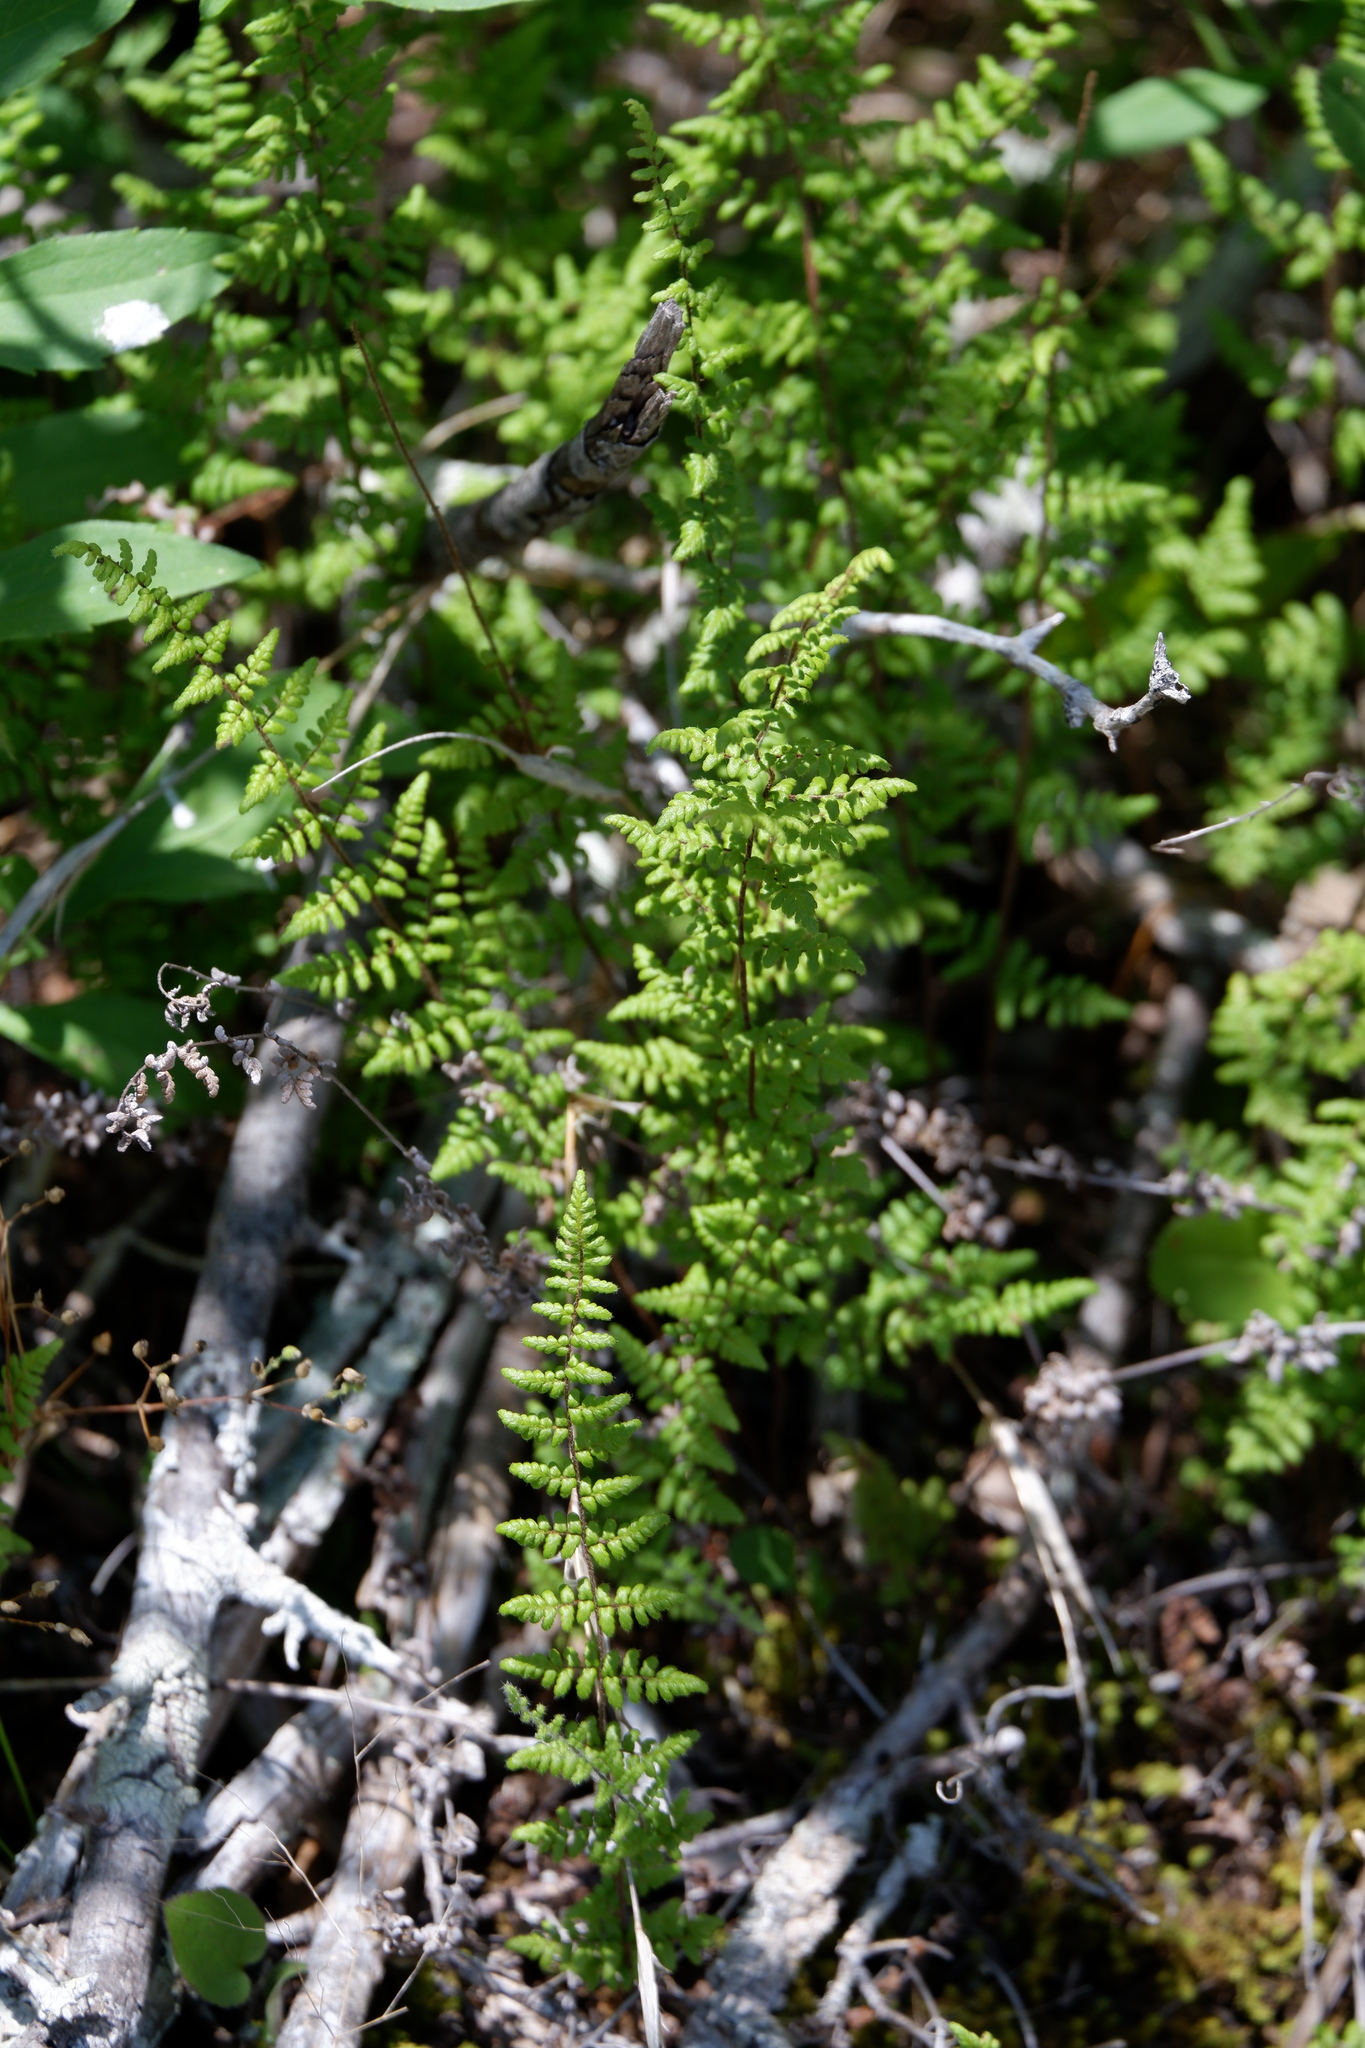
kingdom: Plantae
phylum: Tracheophyta
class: Polypodiopsida
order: Polypodiales
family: Pteridaceae
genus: Myriopteris
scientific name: Myriopteris lanosa
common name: Hairy lip fern
